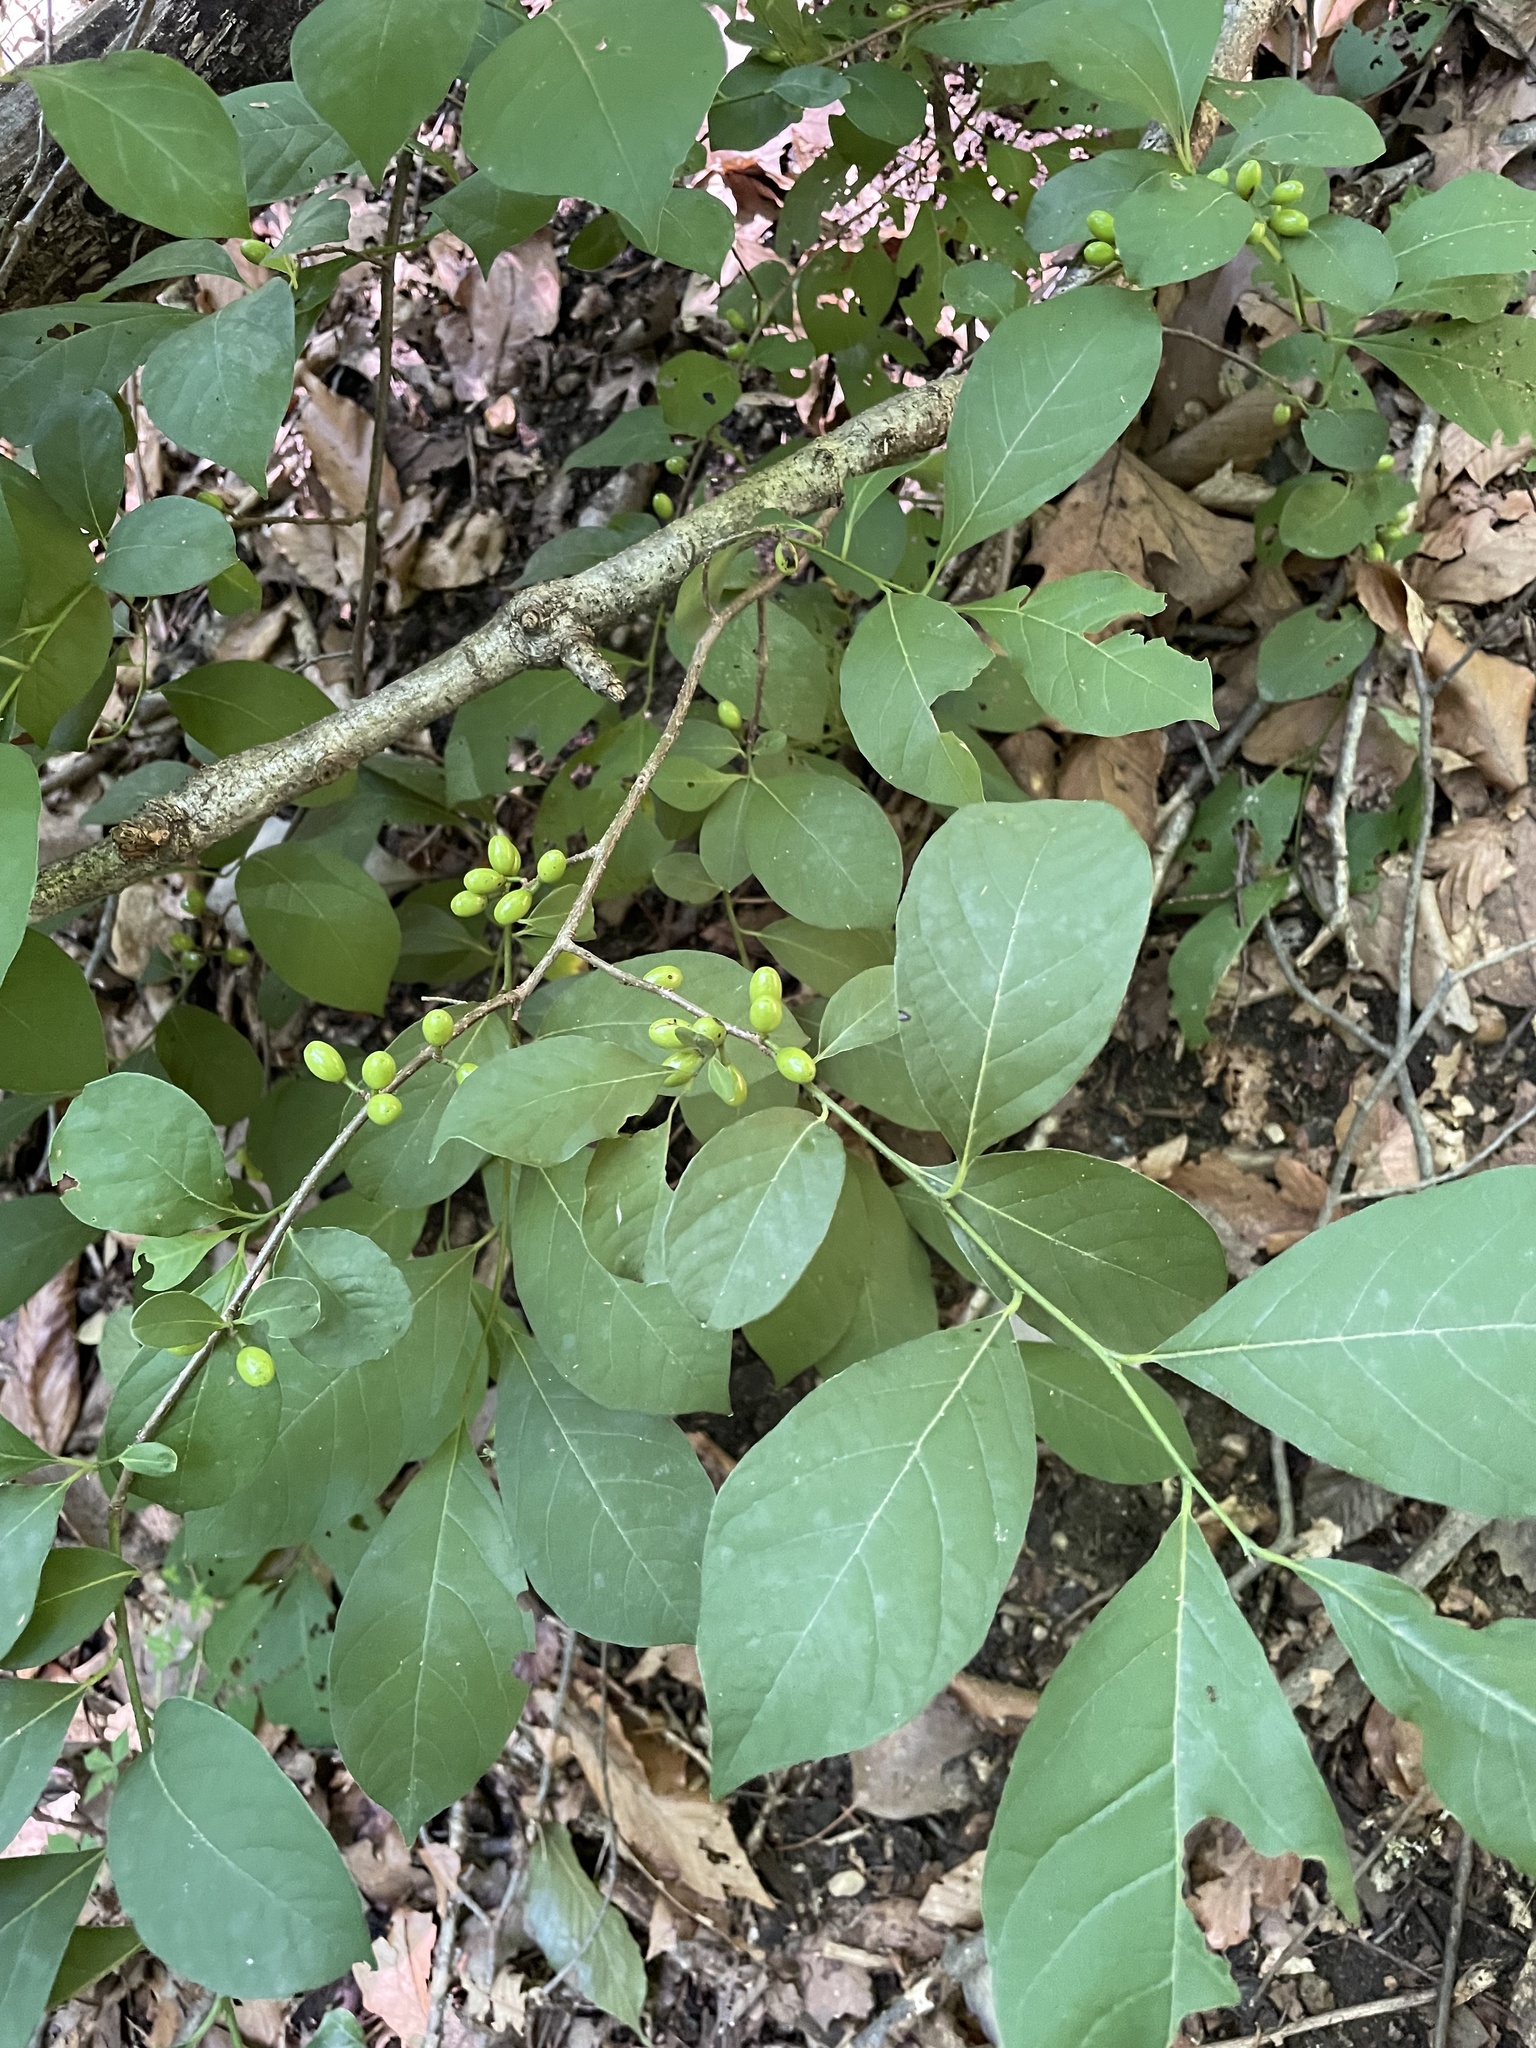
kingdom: Plantae
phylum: Tracheophyta
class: Magnoliopsida
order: Laurales
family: Lauraceae
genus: Lindera
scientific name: Lindera benzoin
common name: Spicebush
